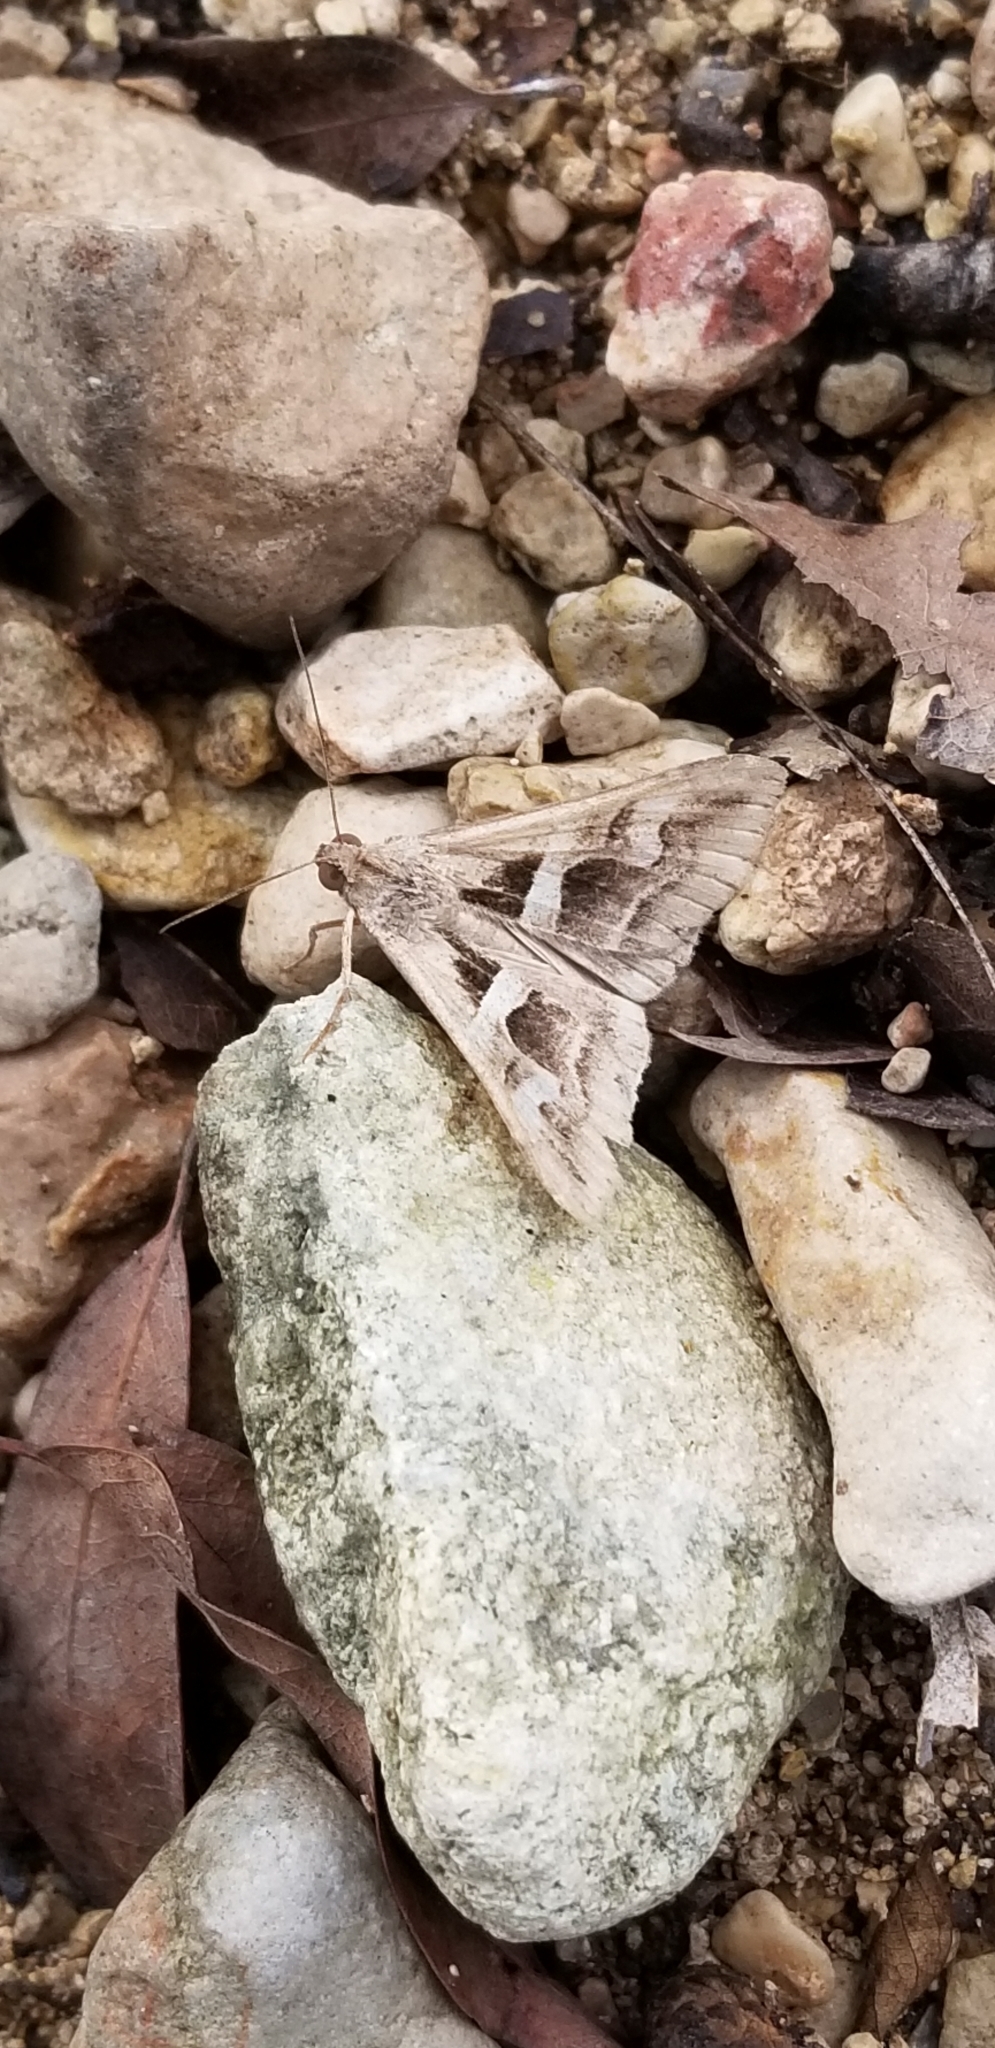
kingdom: Animalia
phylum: Arthropoda
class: Insecta
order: Lepidoptera
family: Erebidae
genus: Melipotis
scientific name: Melipotis cellaris
